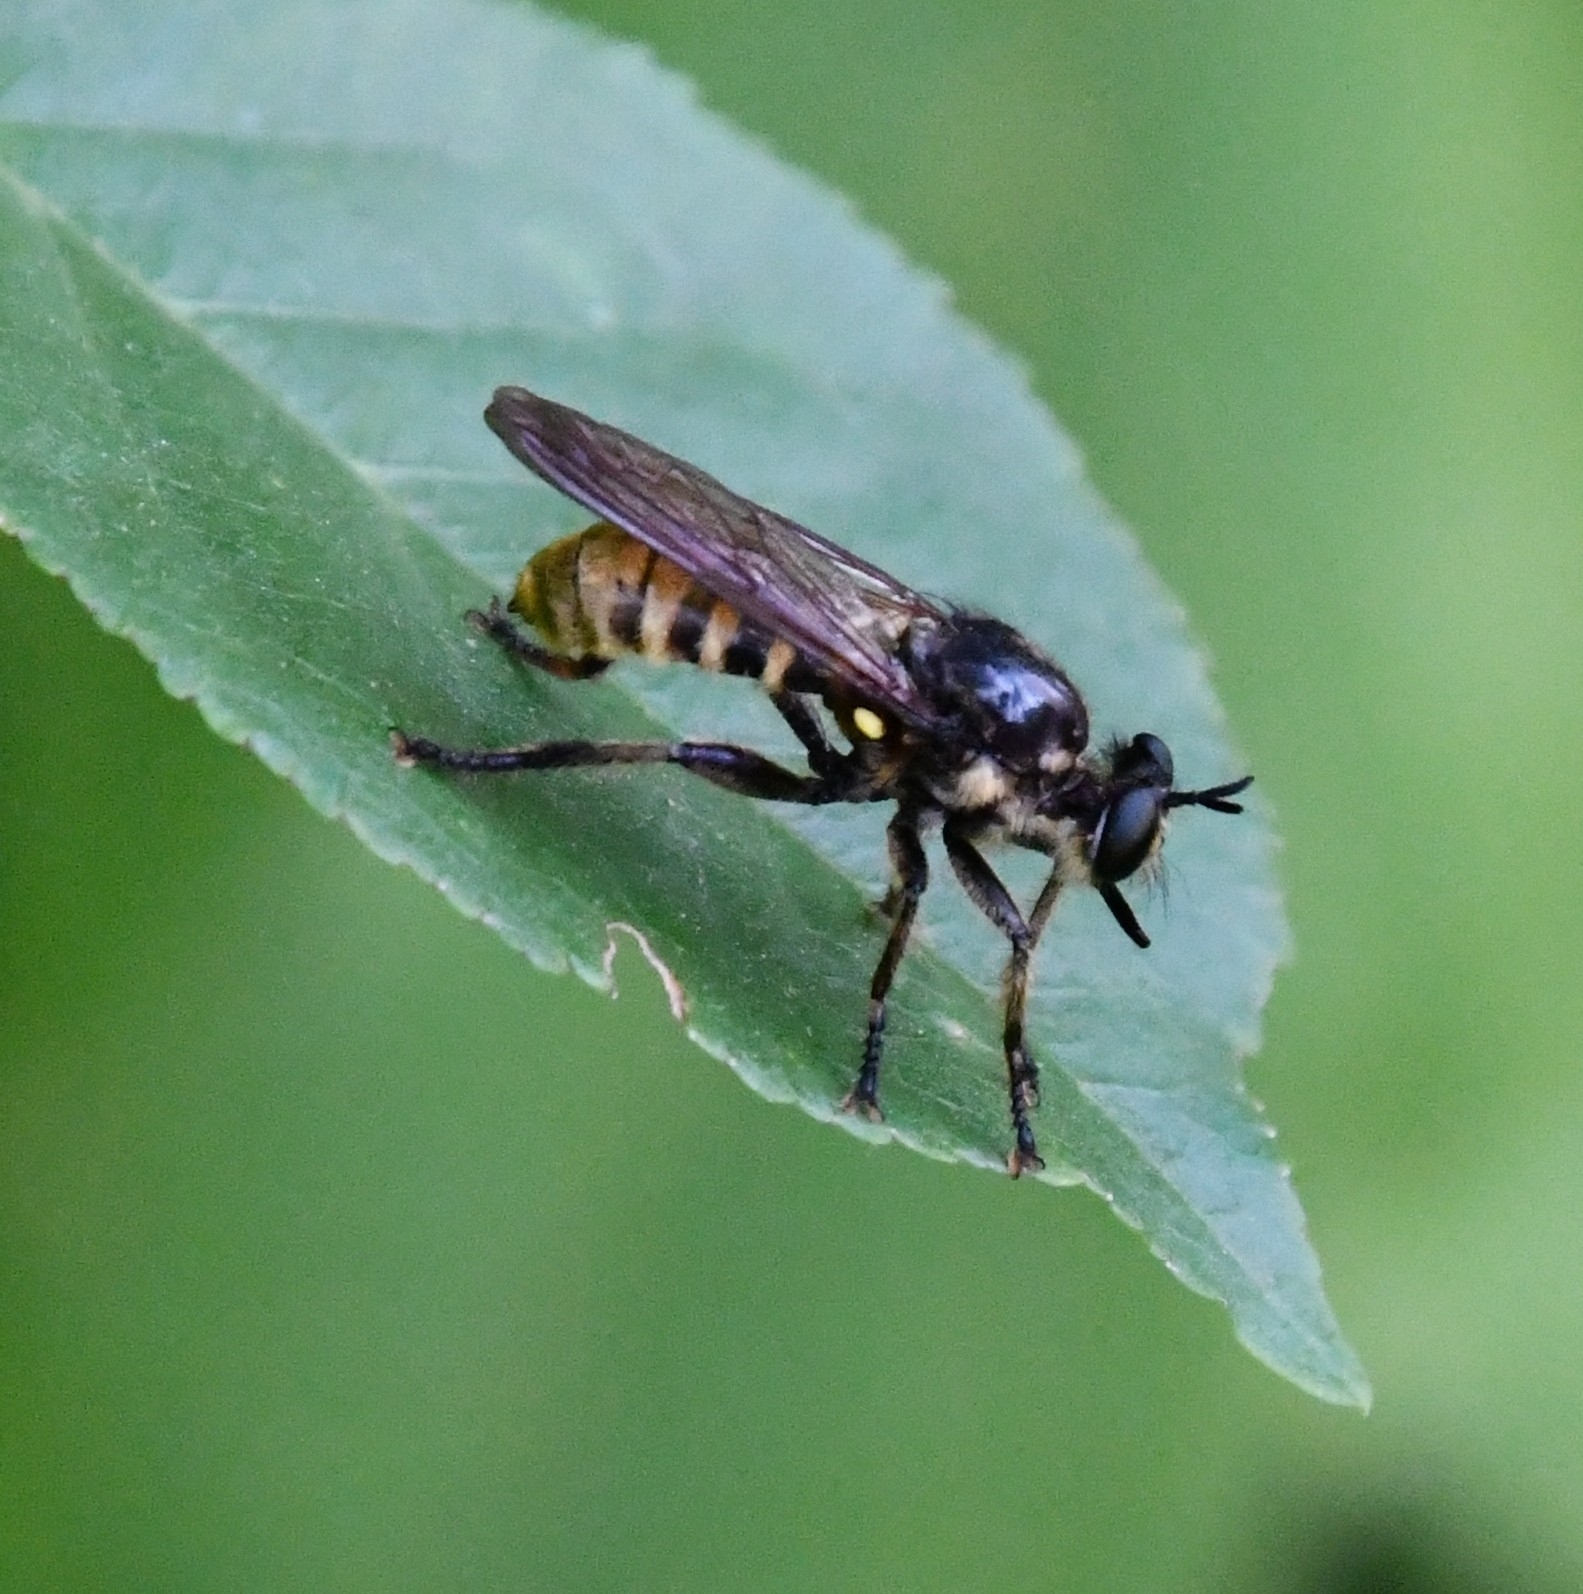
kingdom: Animalia
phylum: Arthropoda
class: Insecta
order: Diptera
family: Asilidae
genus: Lamyra
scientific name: Lamyra fimbriata
